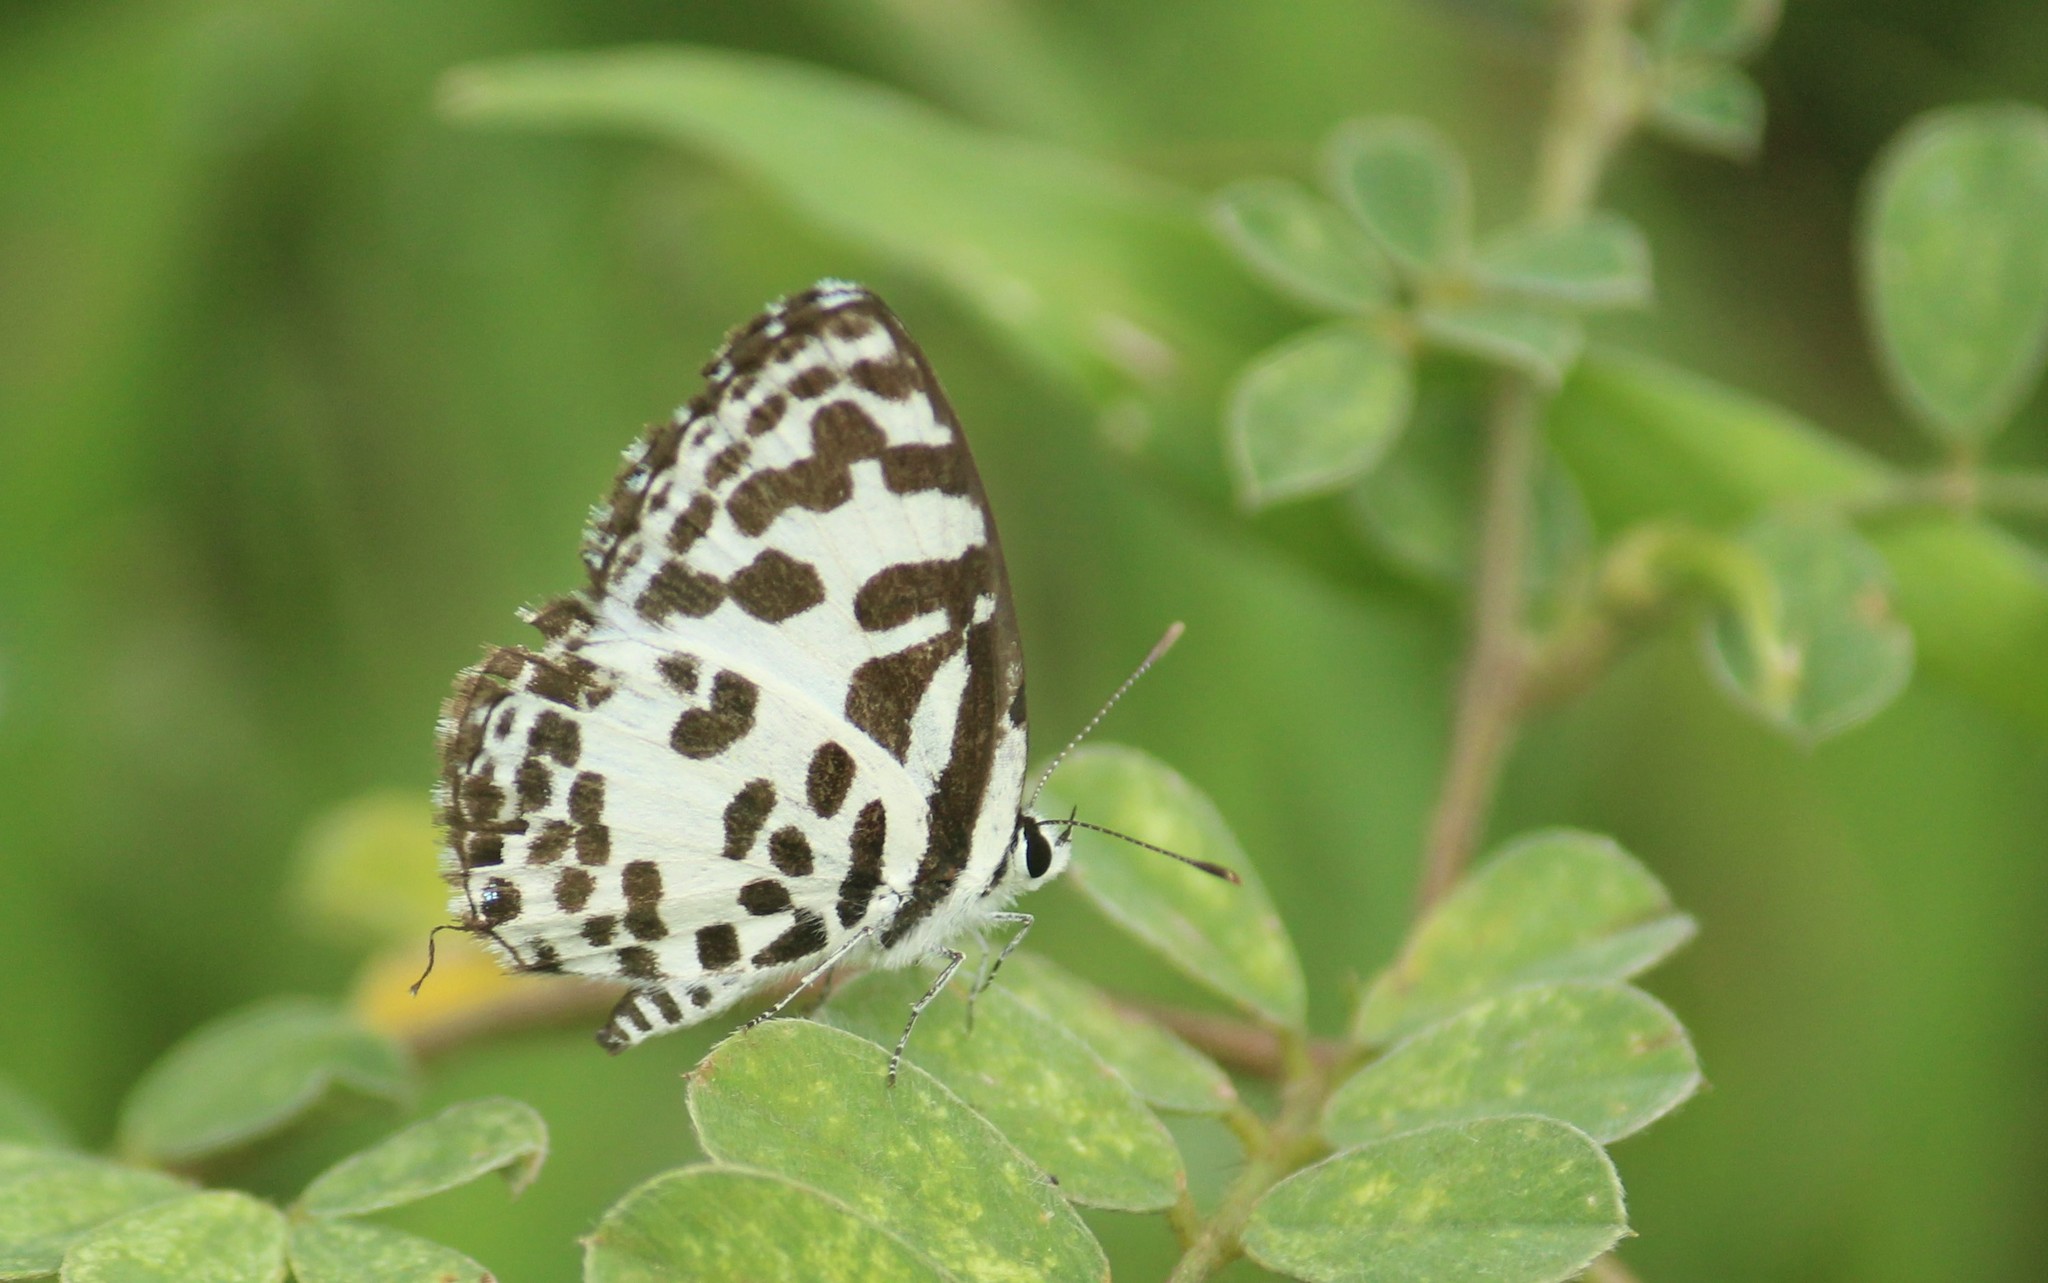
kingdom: Animalia
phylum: Arthropoda
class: Insecta
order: Lepidoptera
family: Lycaenidae
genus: Castalius
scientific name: Castalius rosimon
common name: Common pierrot
